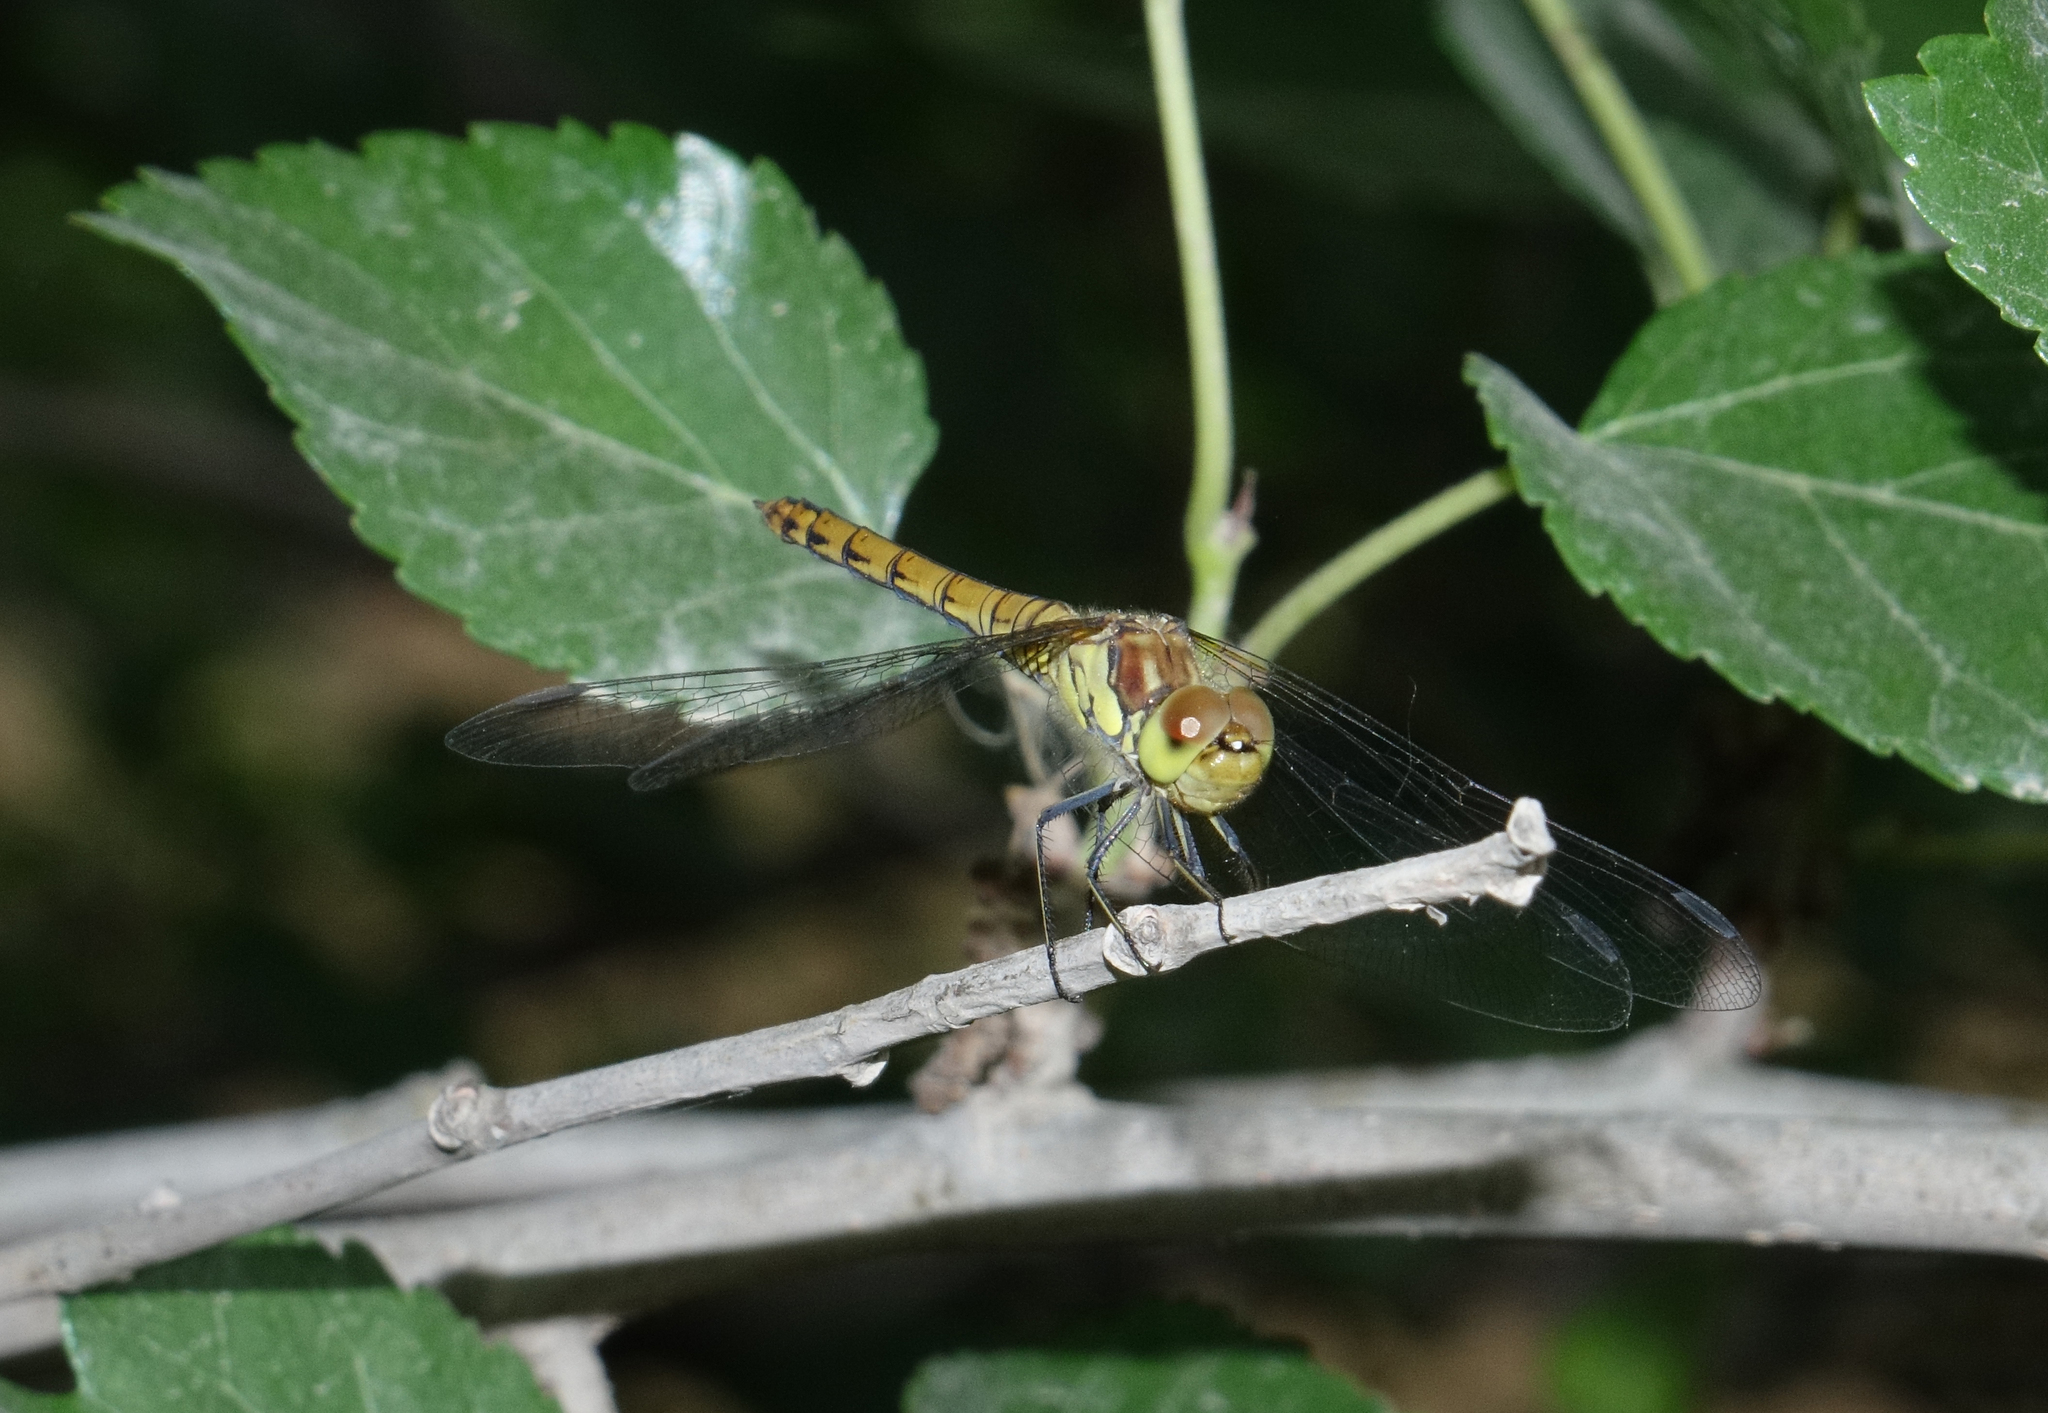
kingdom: Animalia
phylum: Arthropoda
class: Insecta
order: Odonata
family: Libellulidae
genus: Sympetrum
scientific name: Sympetrum striolatum
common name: Common darter
